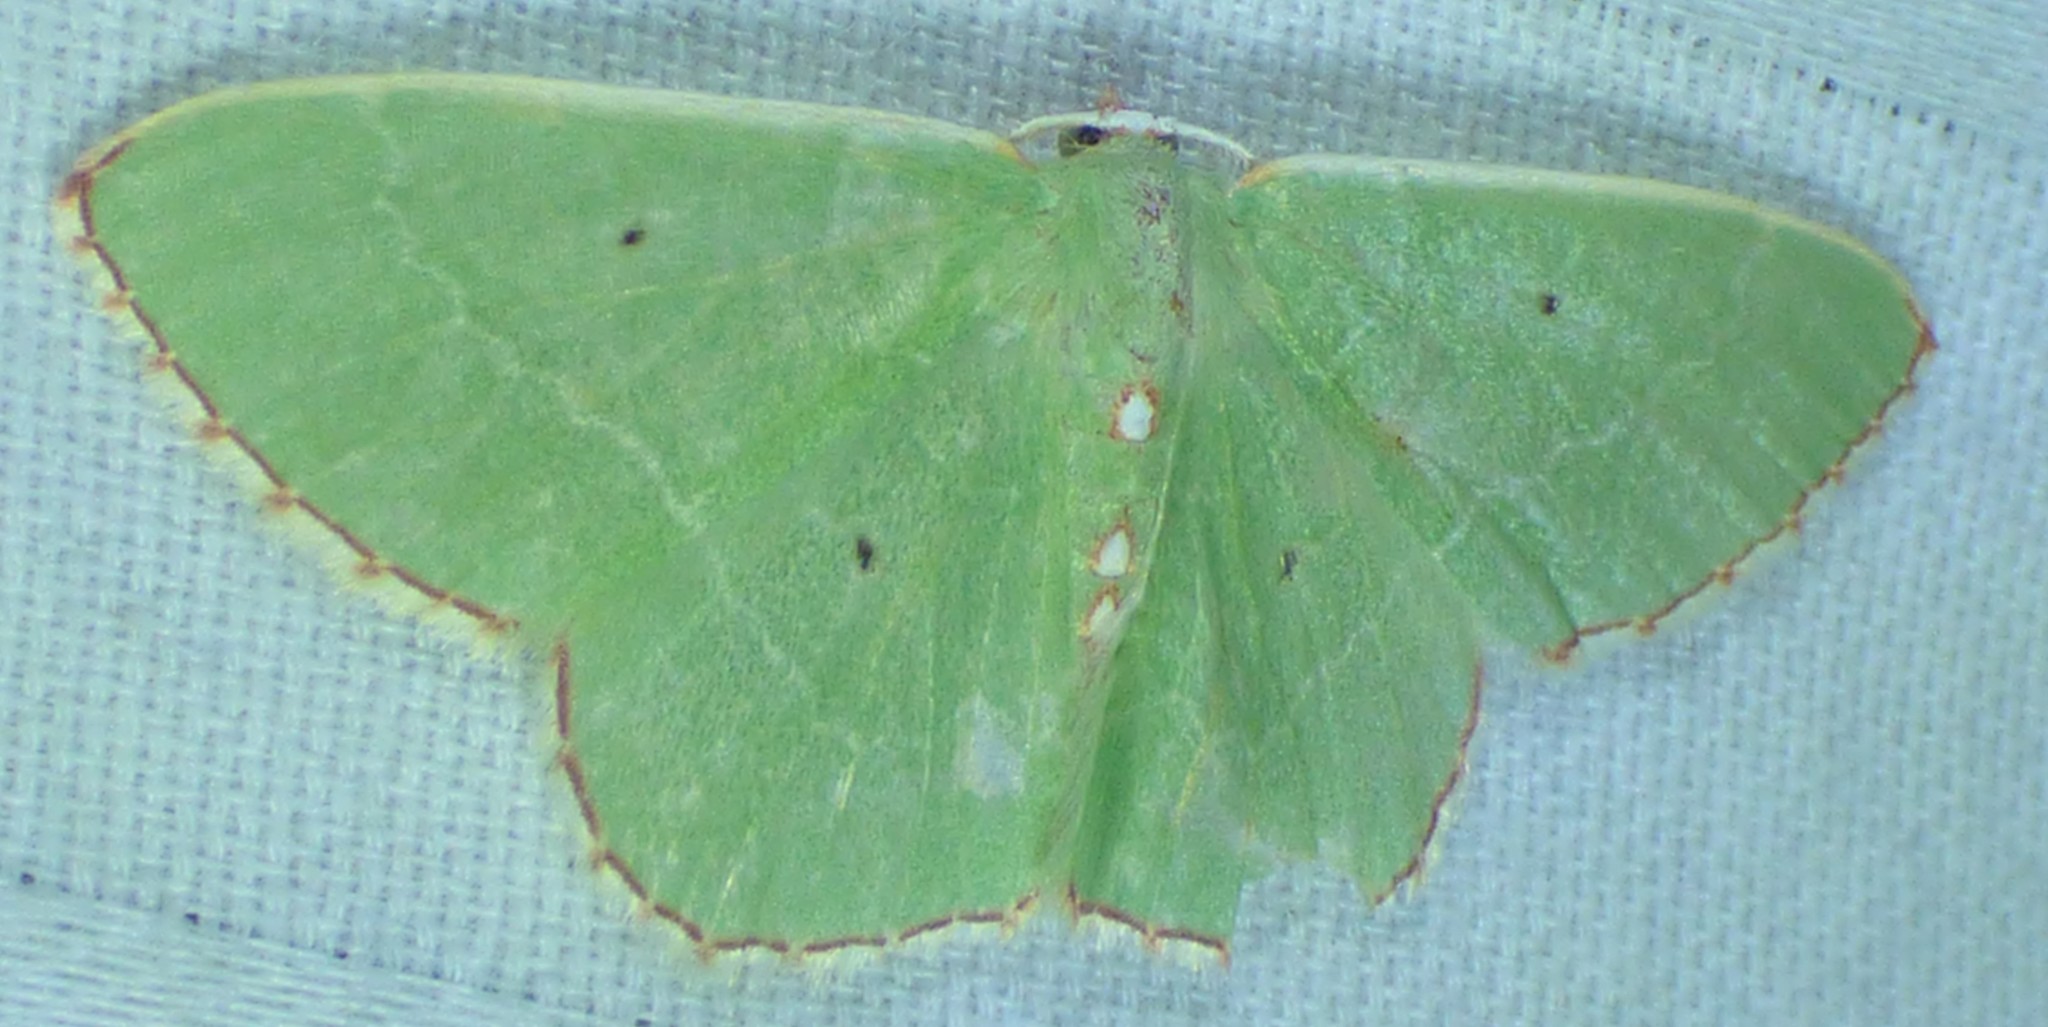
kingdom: Animalia
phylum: Arthropoda
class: Insecta
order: Lepidoptera
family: Geometridae
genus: Nemoria
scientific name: Nemoria lixaria
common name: Red-bordered emerald
